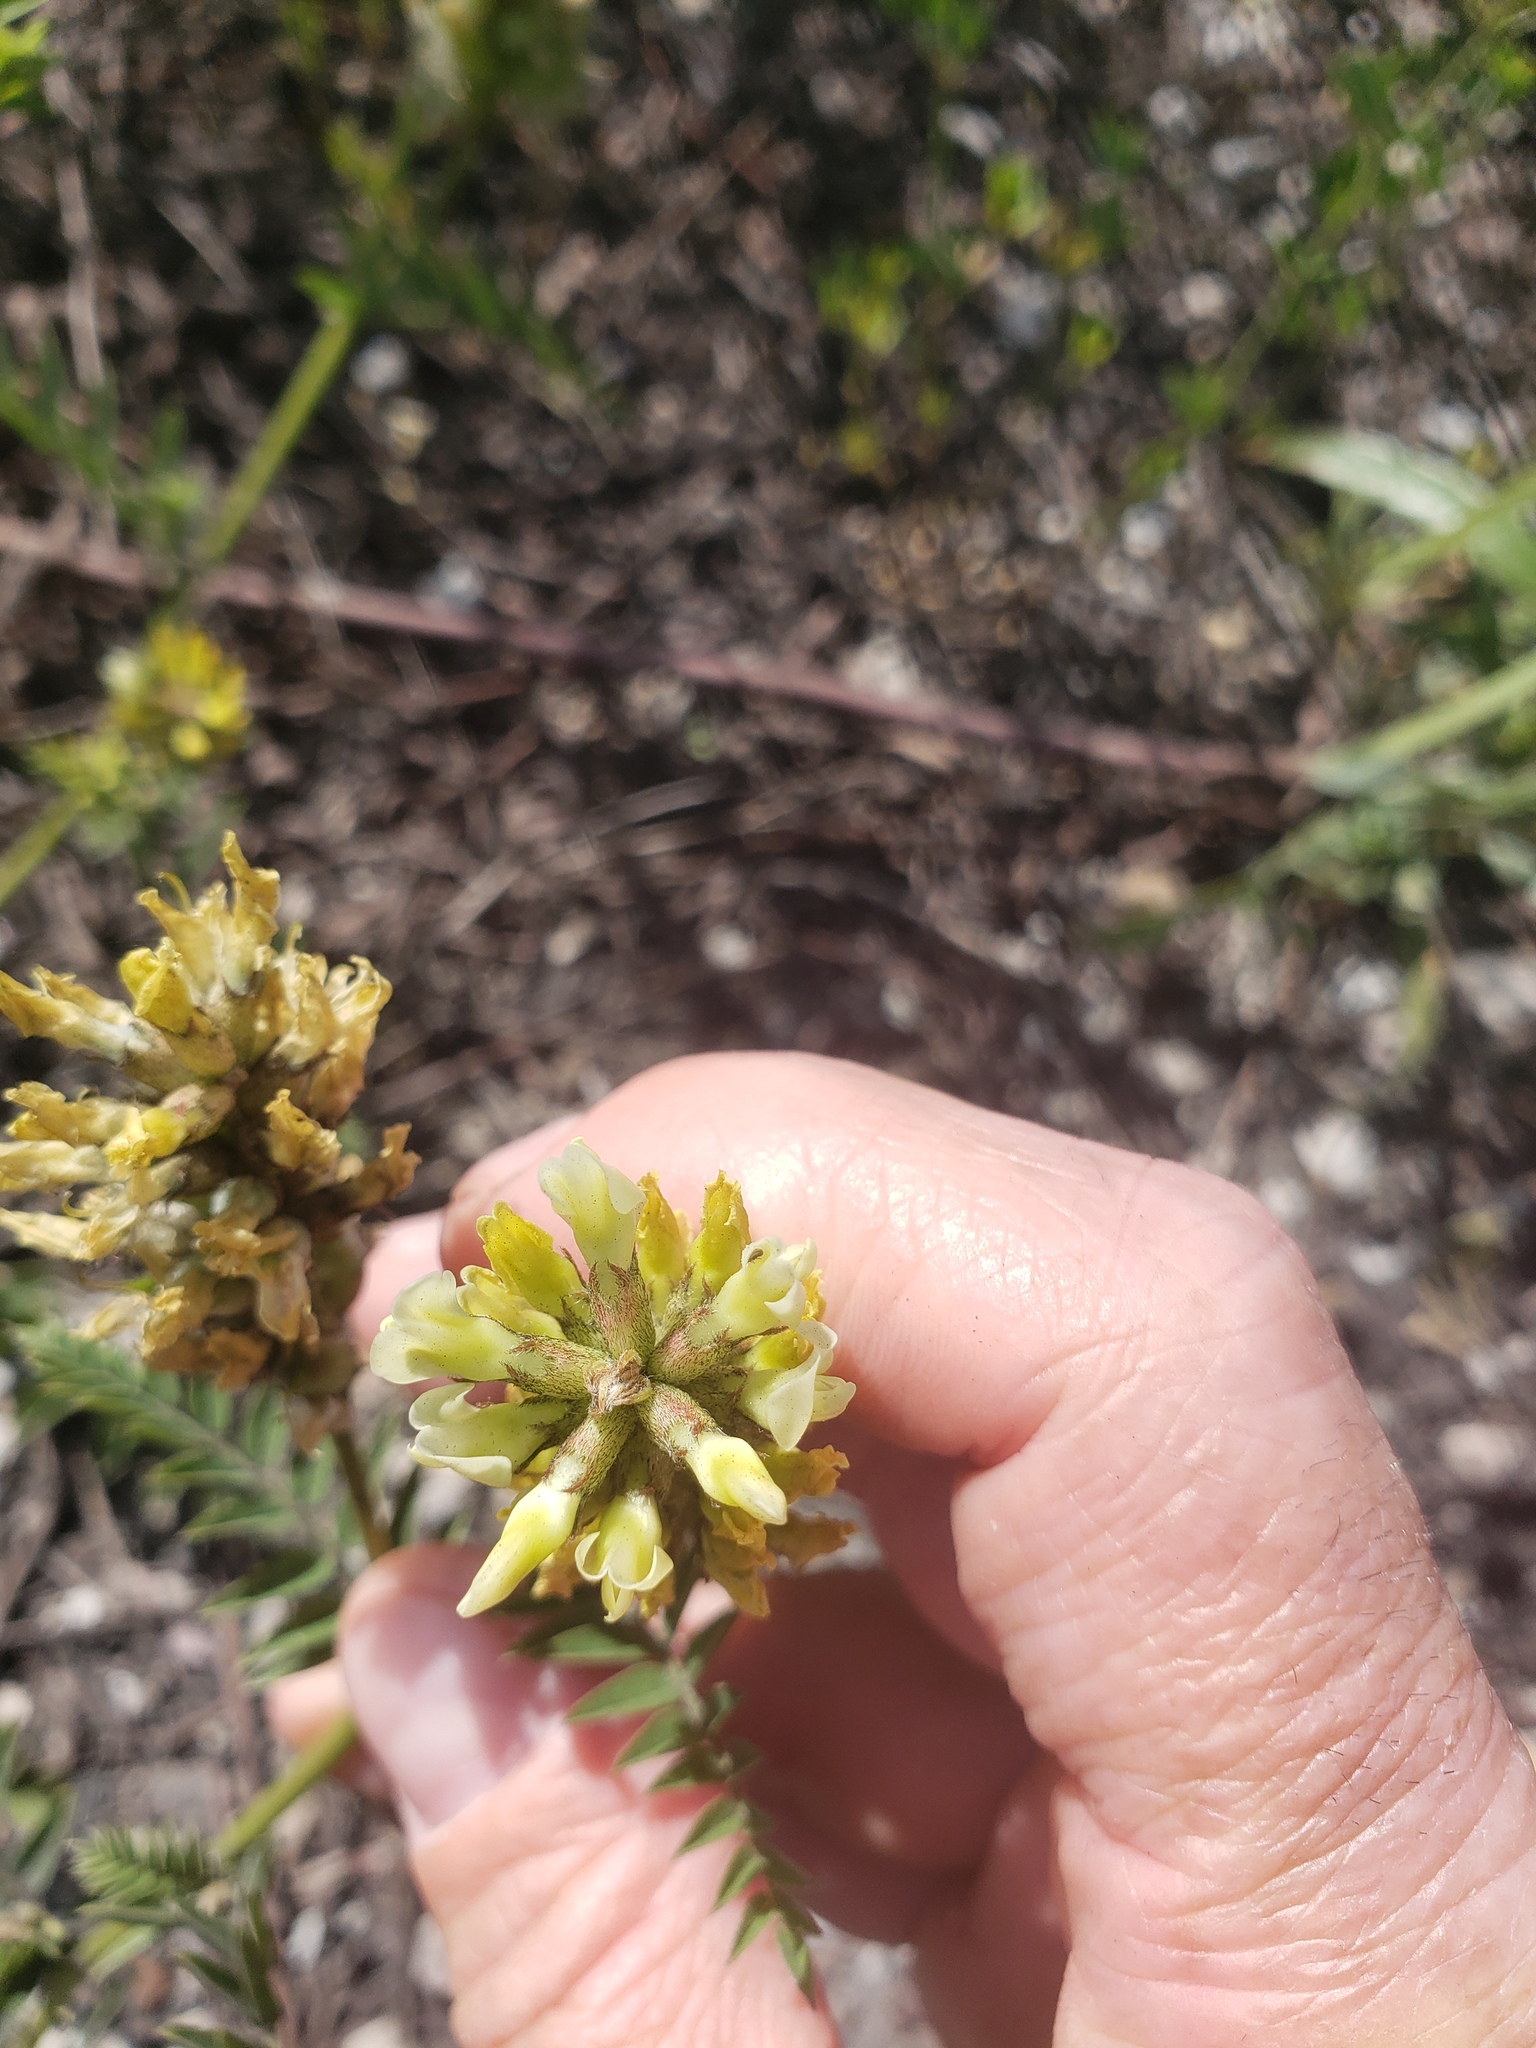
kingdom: Plantae
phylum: Tracheophyta
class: Magnoliopsida
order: Fabales
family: Fabaceae
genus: Astragalus
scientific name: Astragalus cicer
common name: Chick-pea milk-vetch
